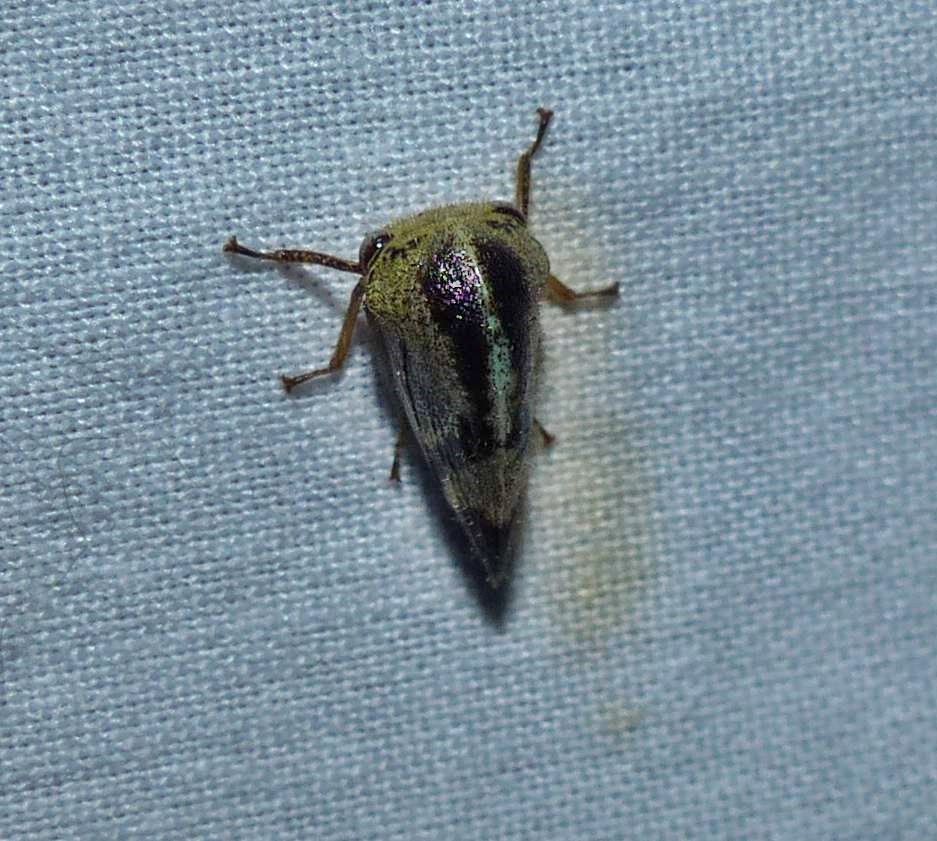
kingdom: Animalia
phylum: Arthropoda
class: Insecta
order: Hemiptera
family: Membracidae
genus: Carynota
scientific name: Carynota mera
